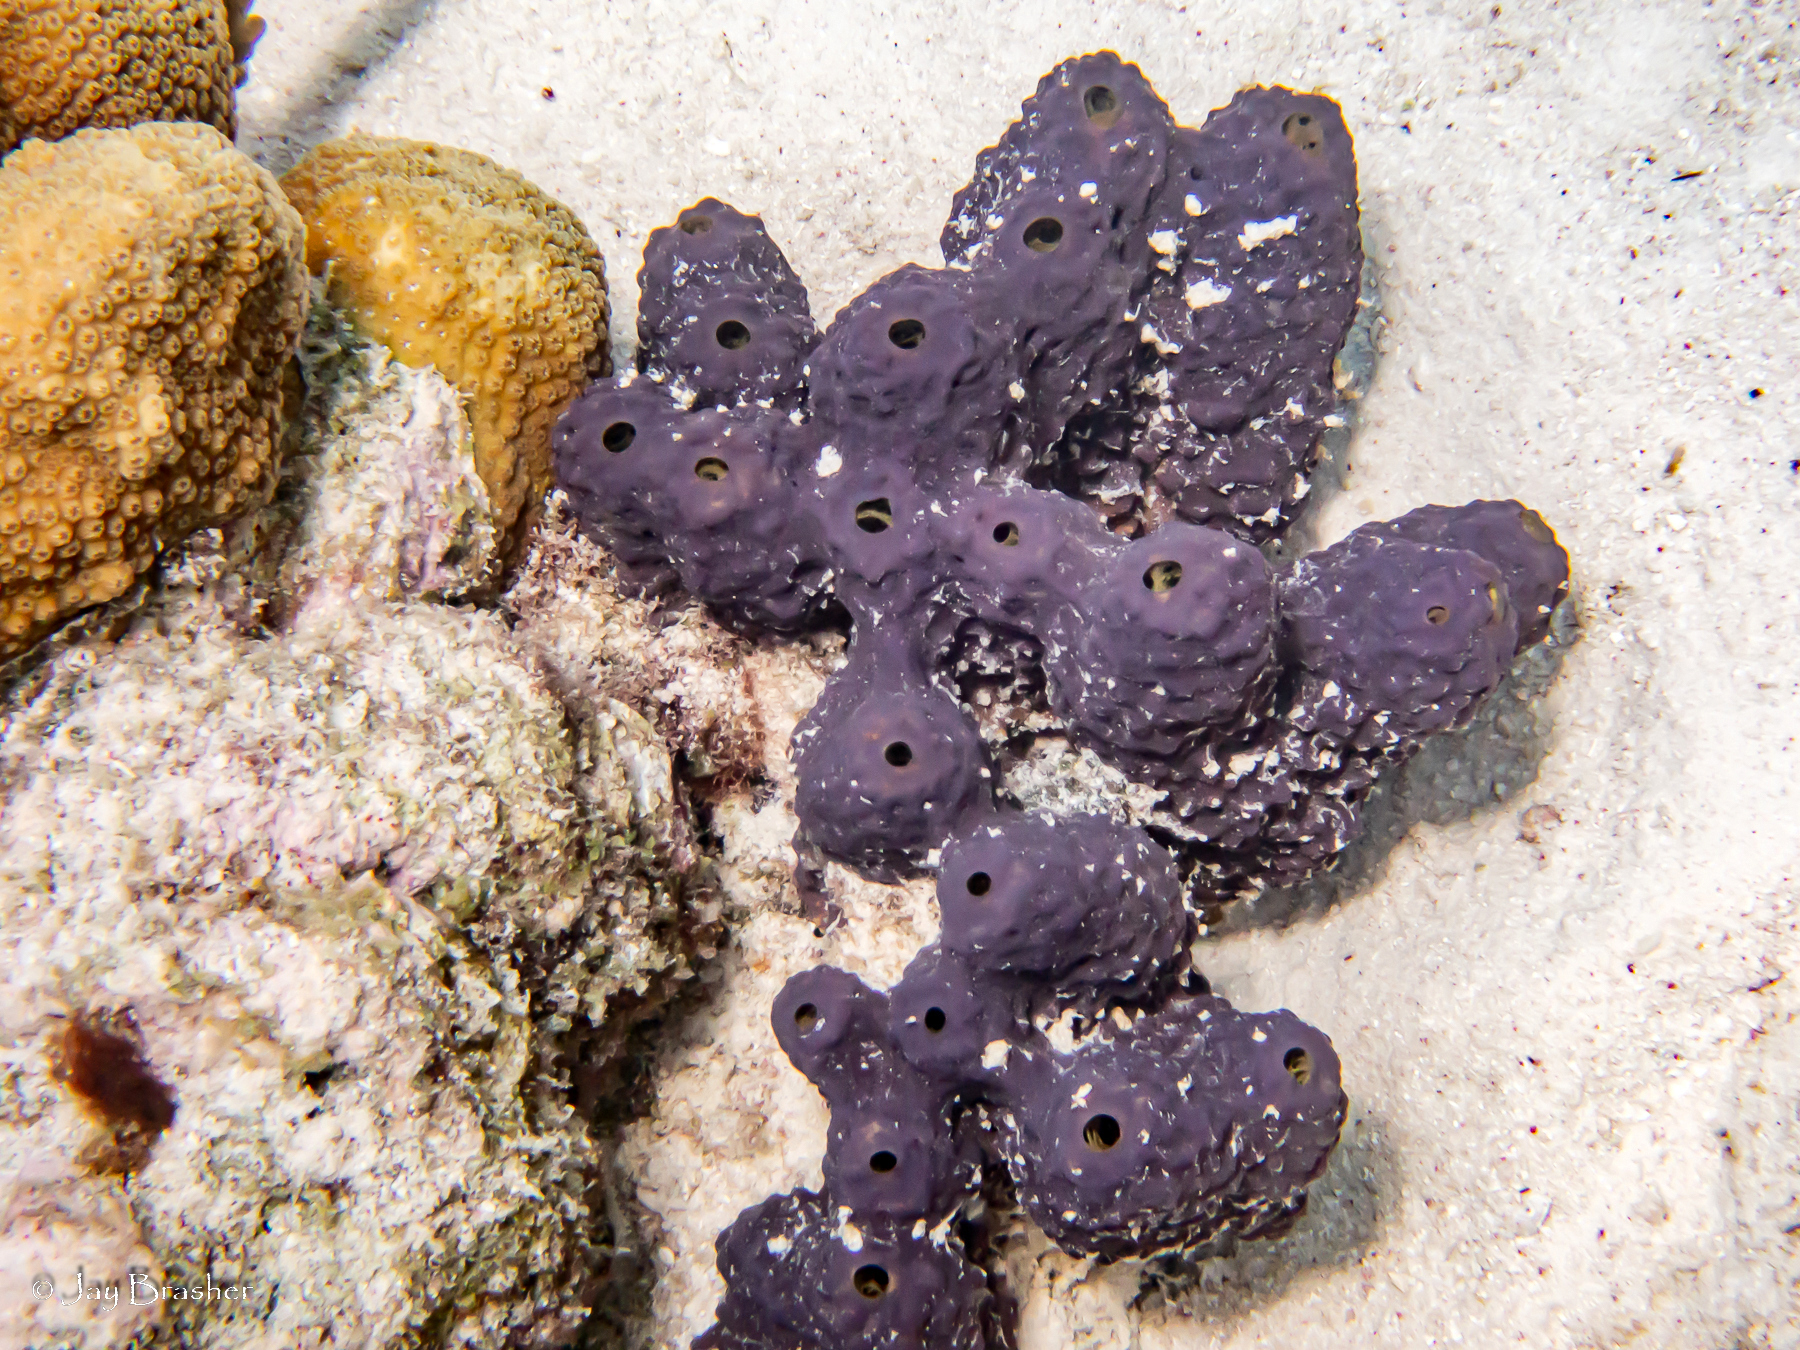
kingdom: Animalia
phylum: Porifera
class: Demospongiae
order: Verongiida
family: Aplysinidae
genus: Aiolochroia
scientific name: Aiolochroia crassa
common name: Branching tube sponge
